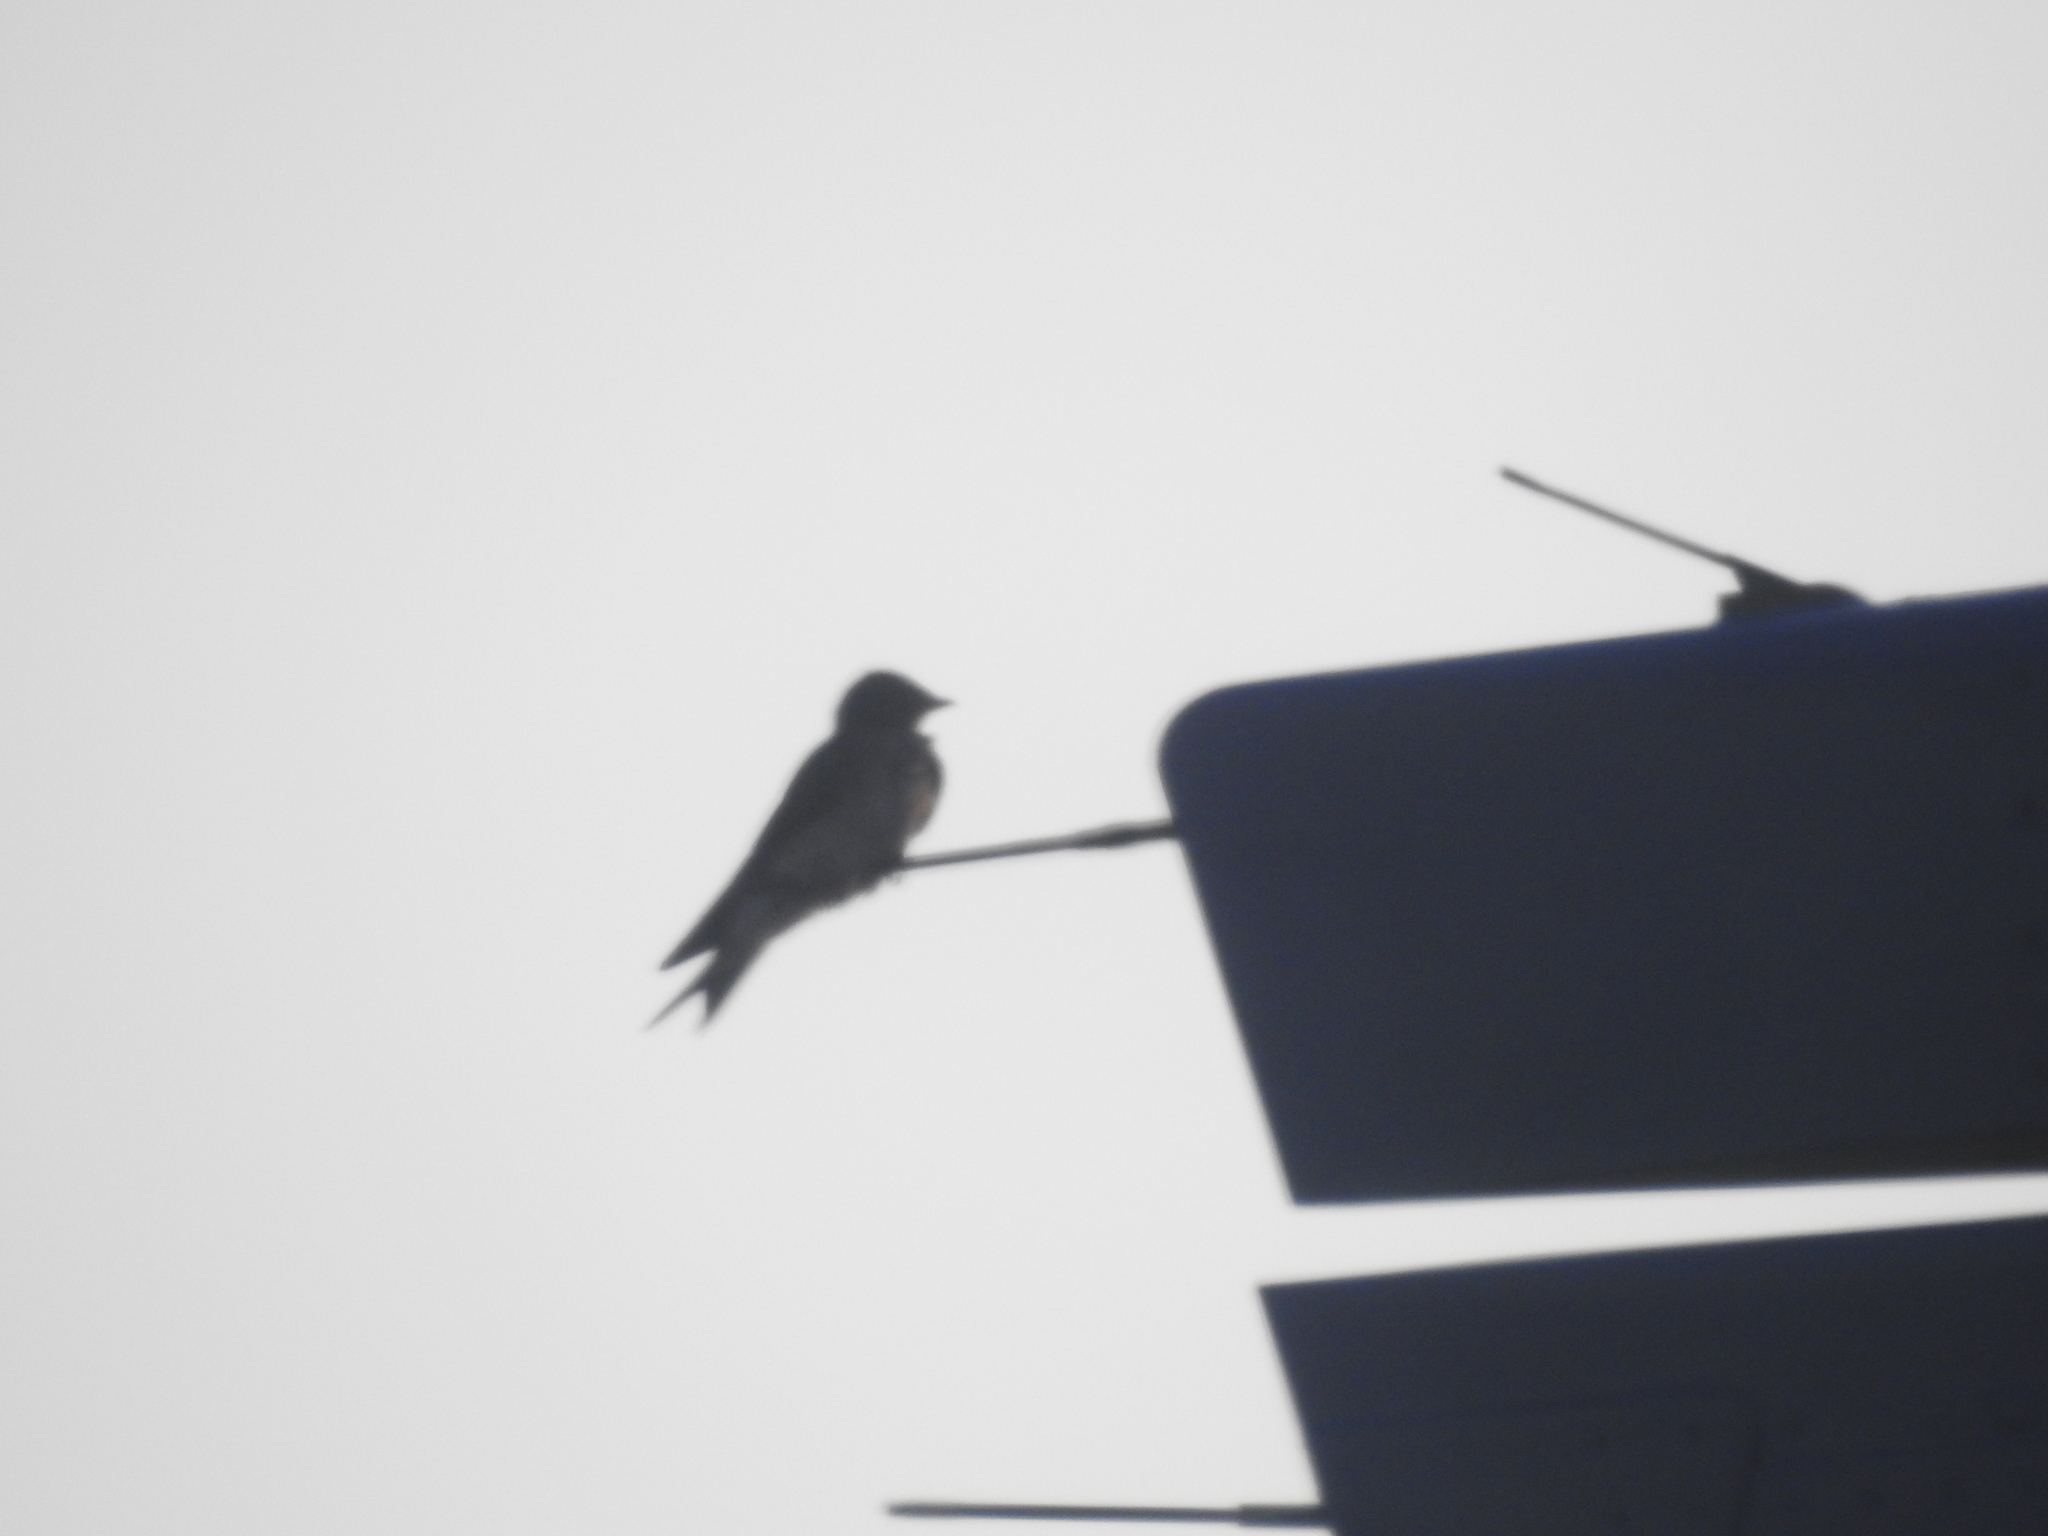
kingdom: Animalia
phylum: Chordata
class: Aves
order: Passeriformes
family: Hirundinidae
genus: Progne
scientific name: Progne chalybea
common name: Grey-breasted martin
